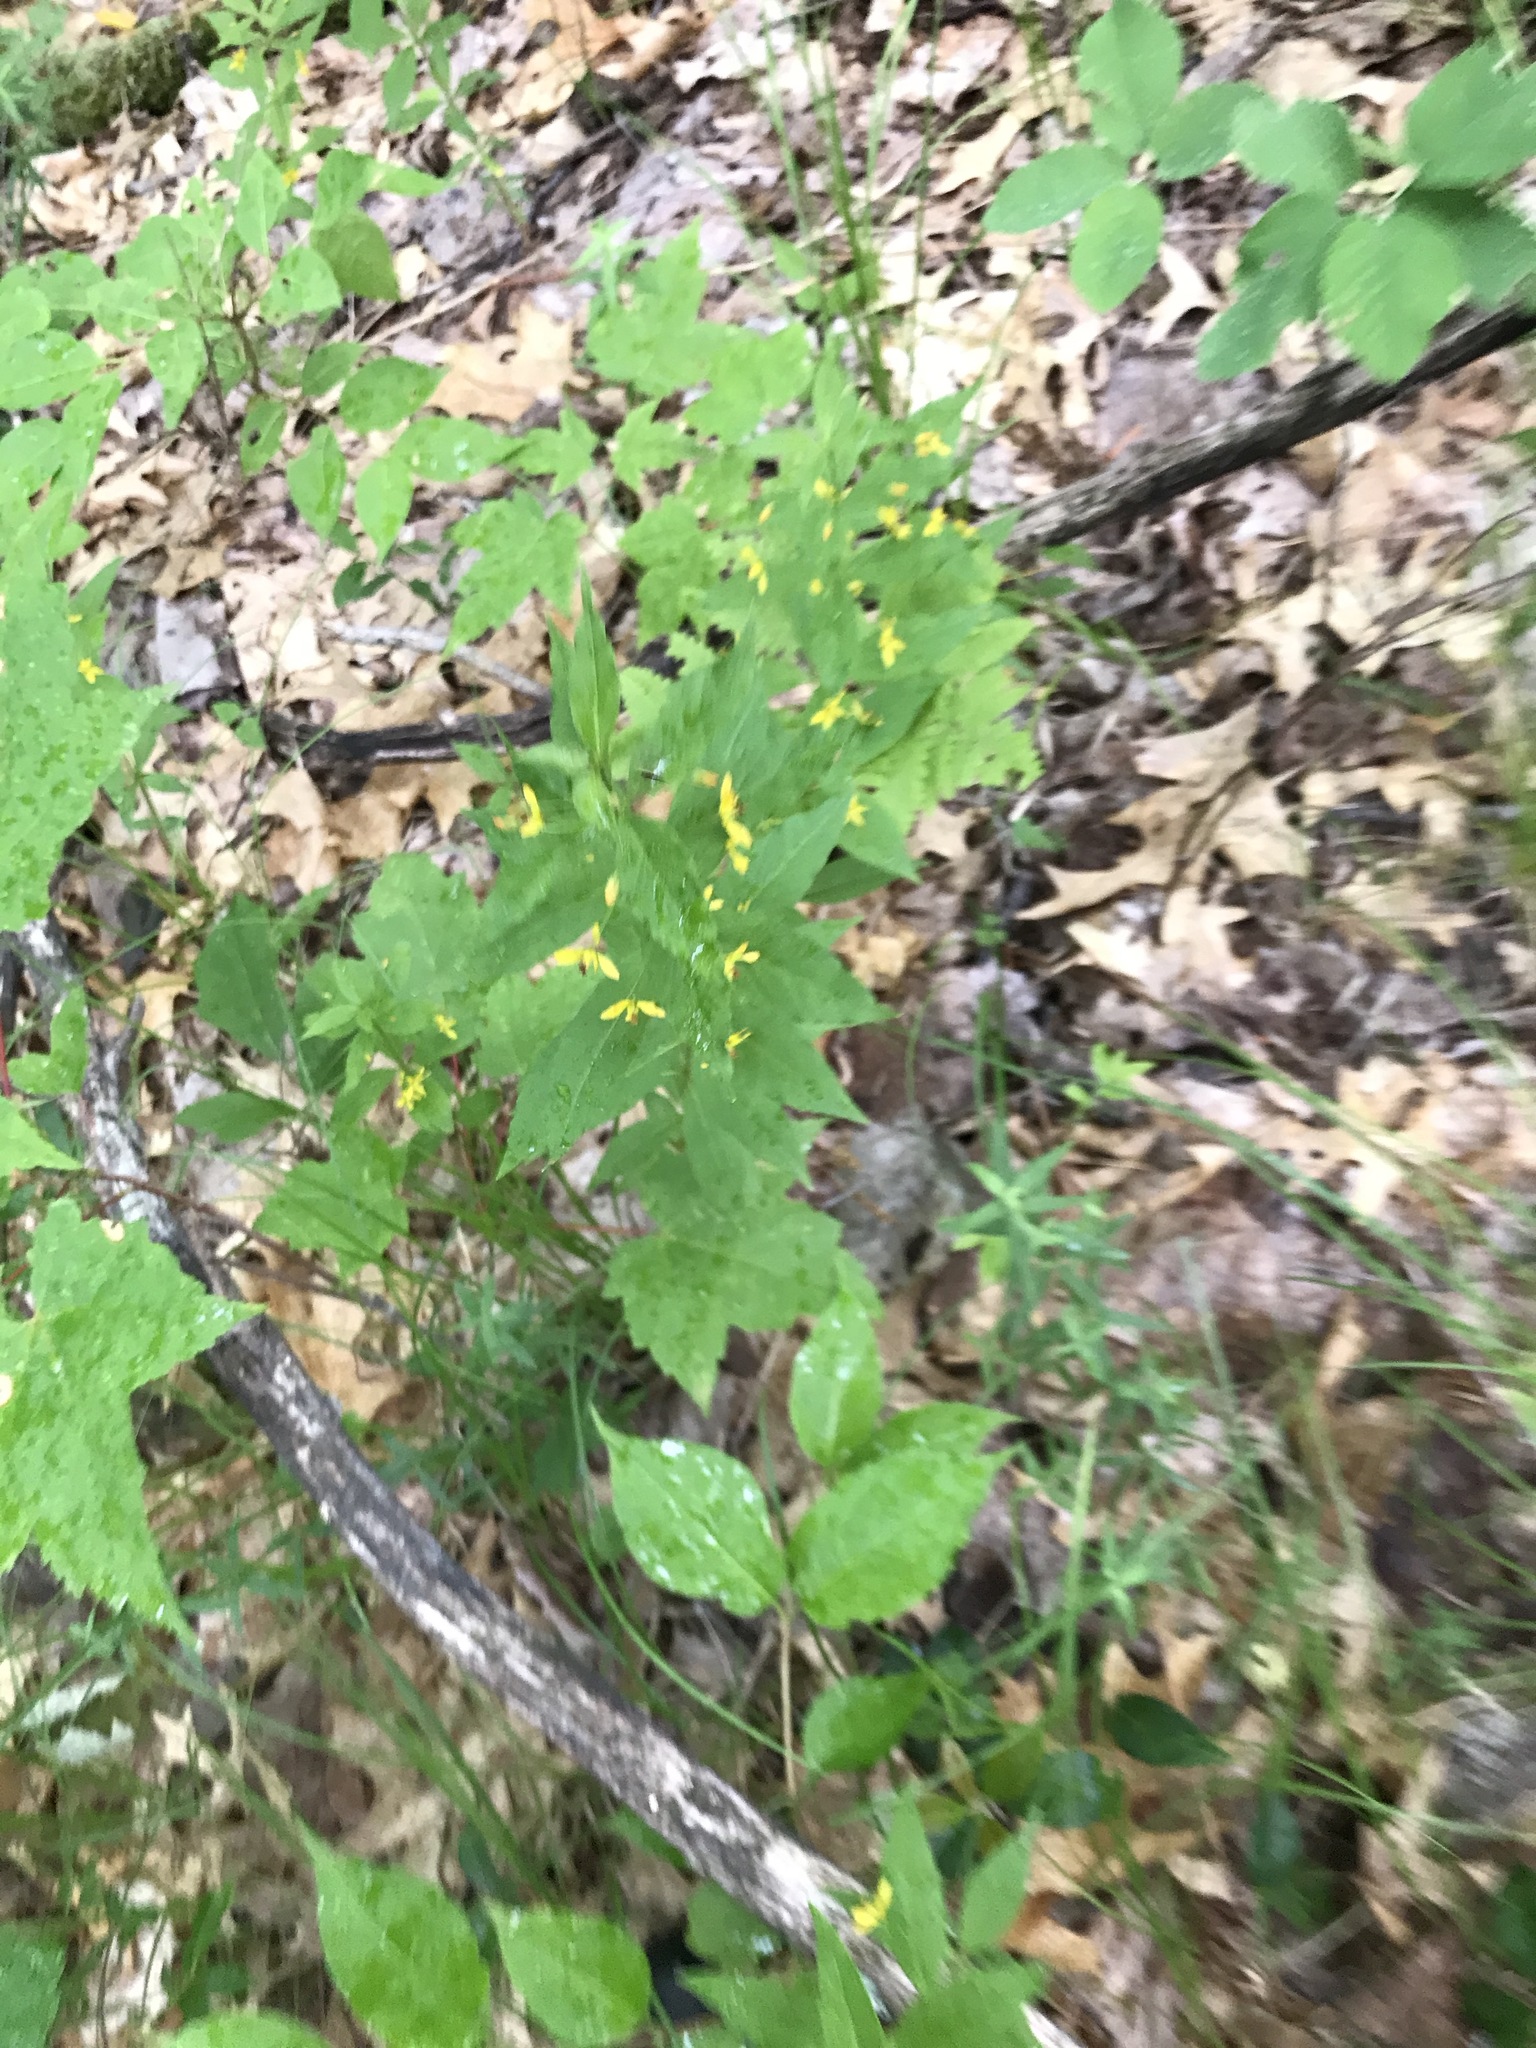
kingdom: Plantae
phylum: Tracheophyta
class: Magnoliopsida
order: Ericales
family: Primulaceae
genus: Lysimachia
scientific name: Lysimachia quadrifolia
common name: Whorled loosestrife
